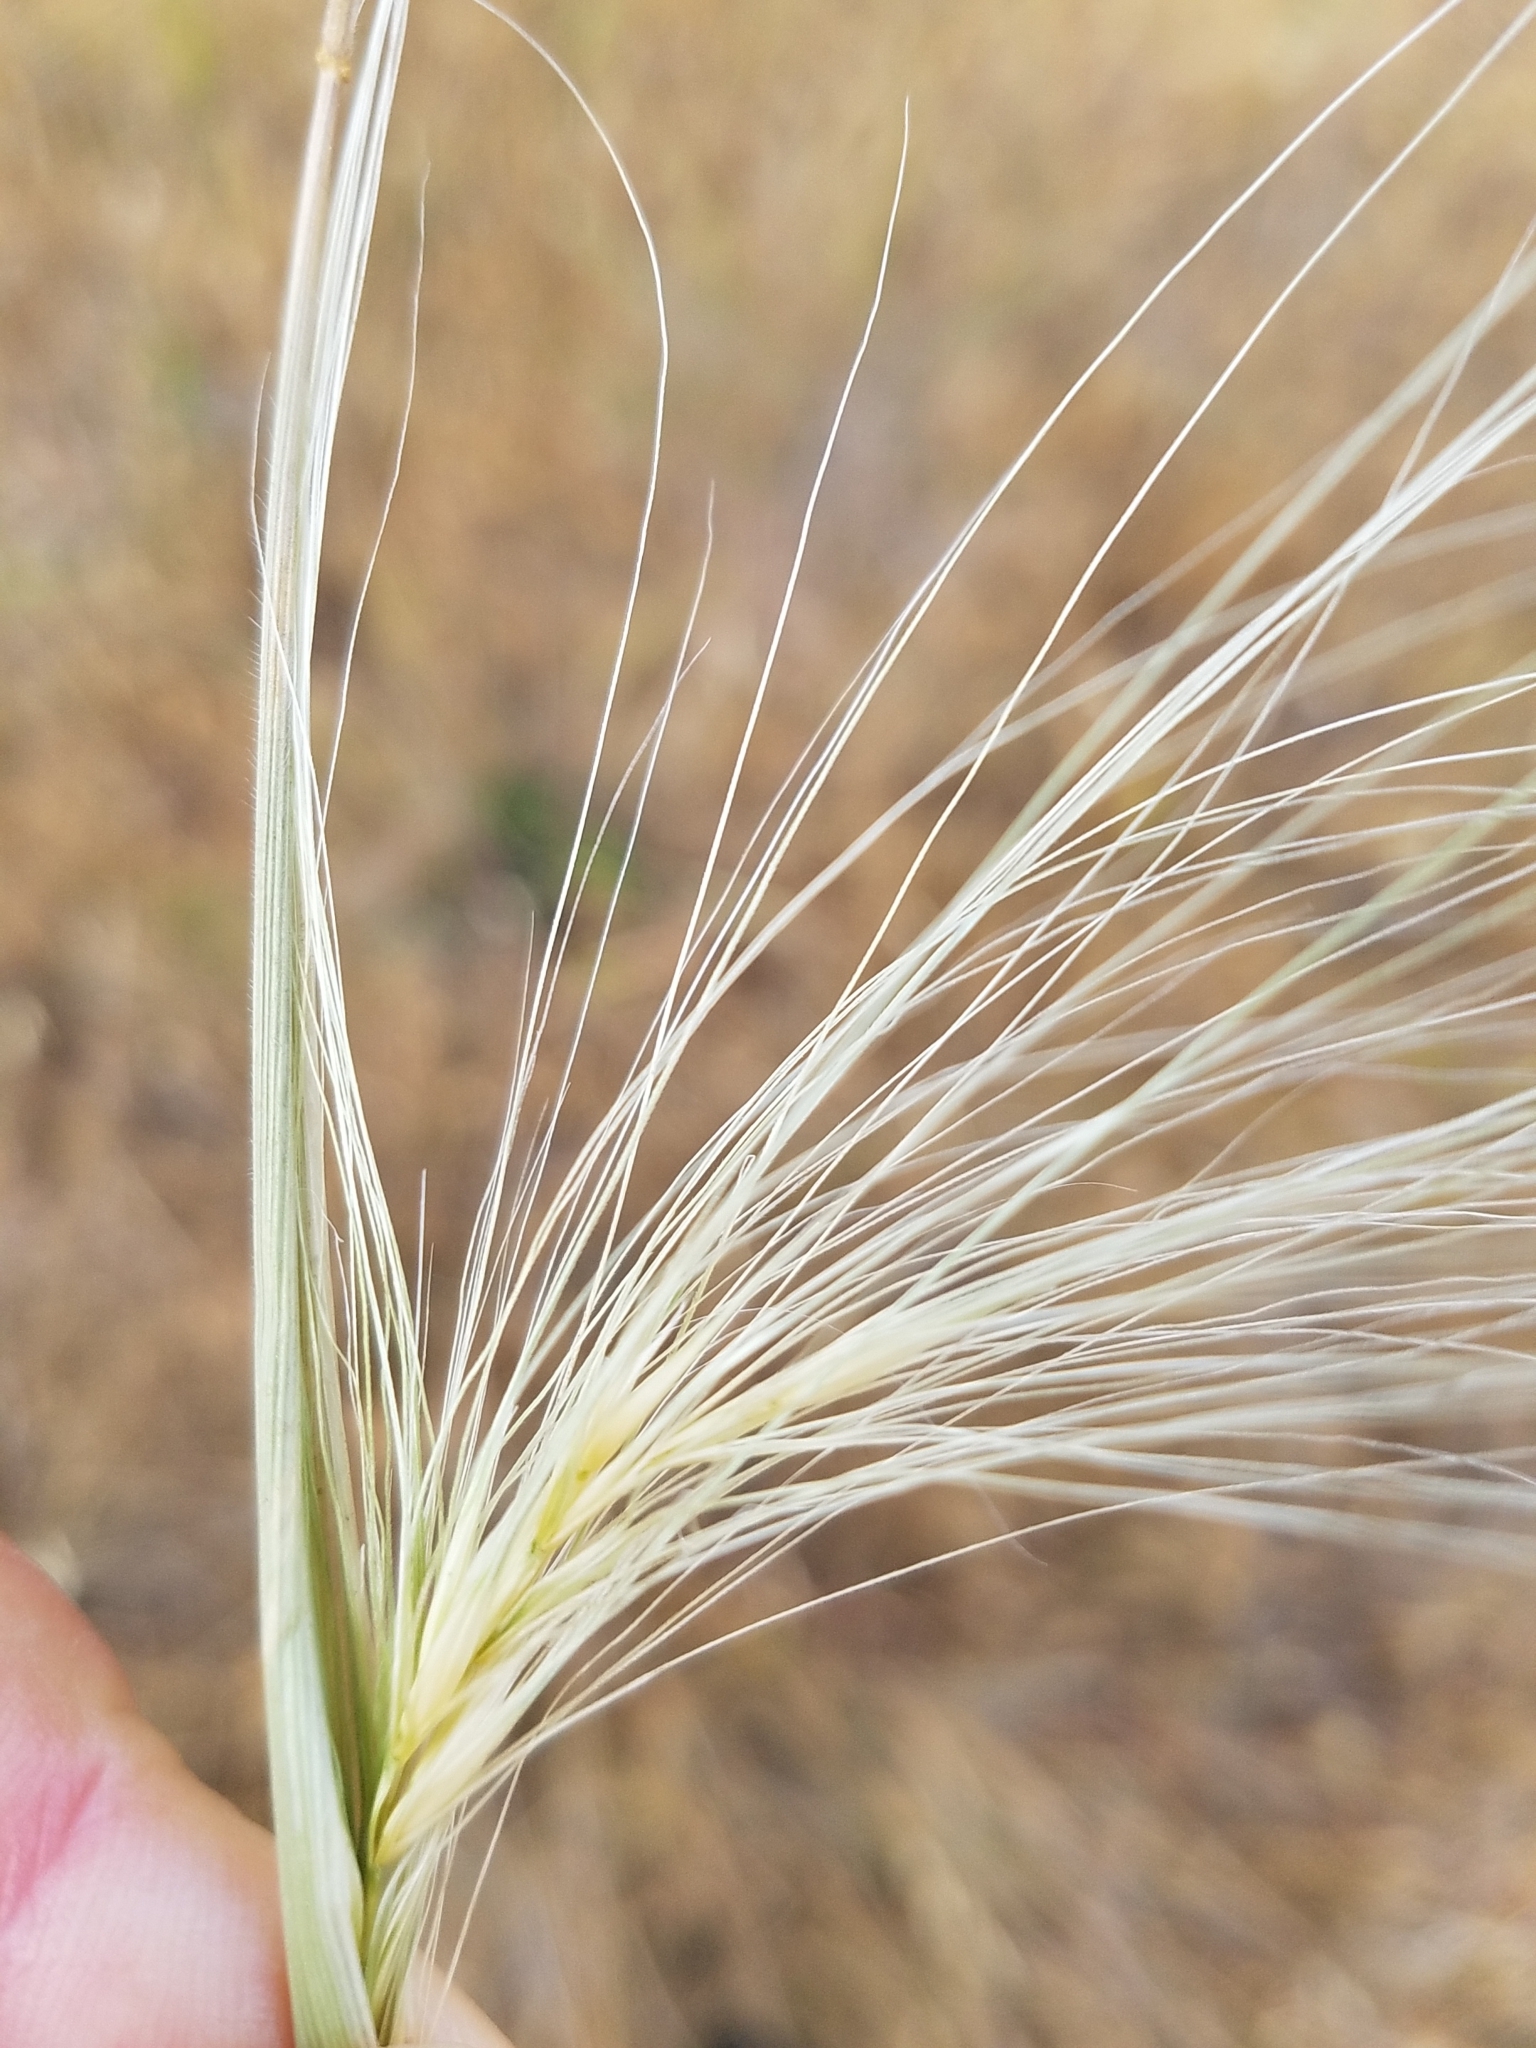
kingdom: Plantae
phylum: Tracheophyta
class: Liliopsida
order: Poales
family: Poaceae
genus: Elymus
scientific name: Elymus multisetus
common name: Big squirreltail
